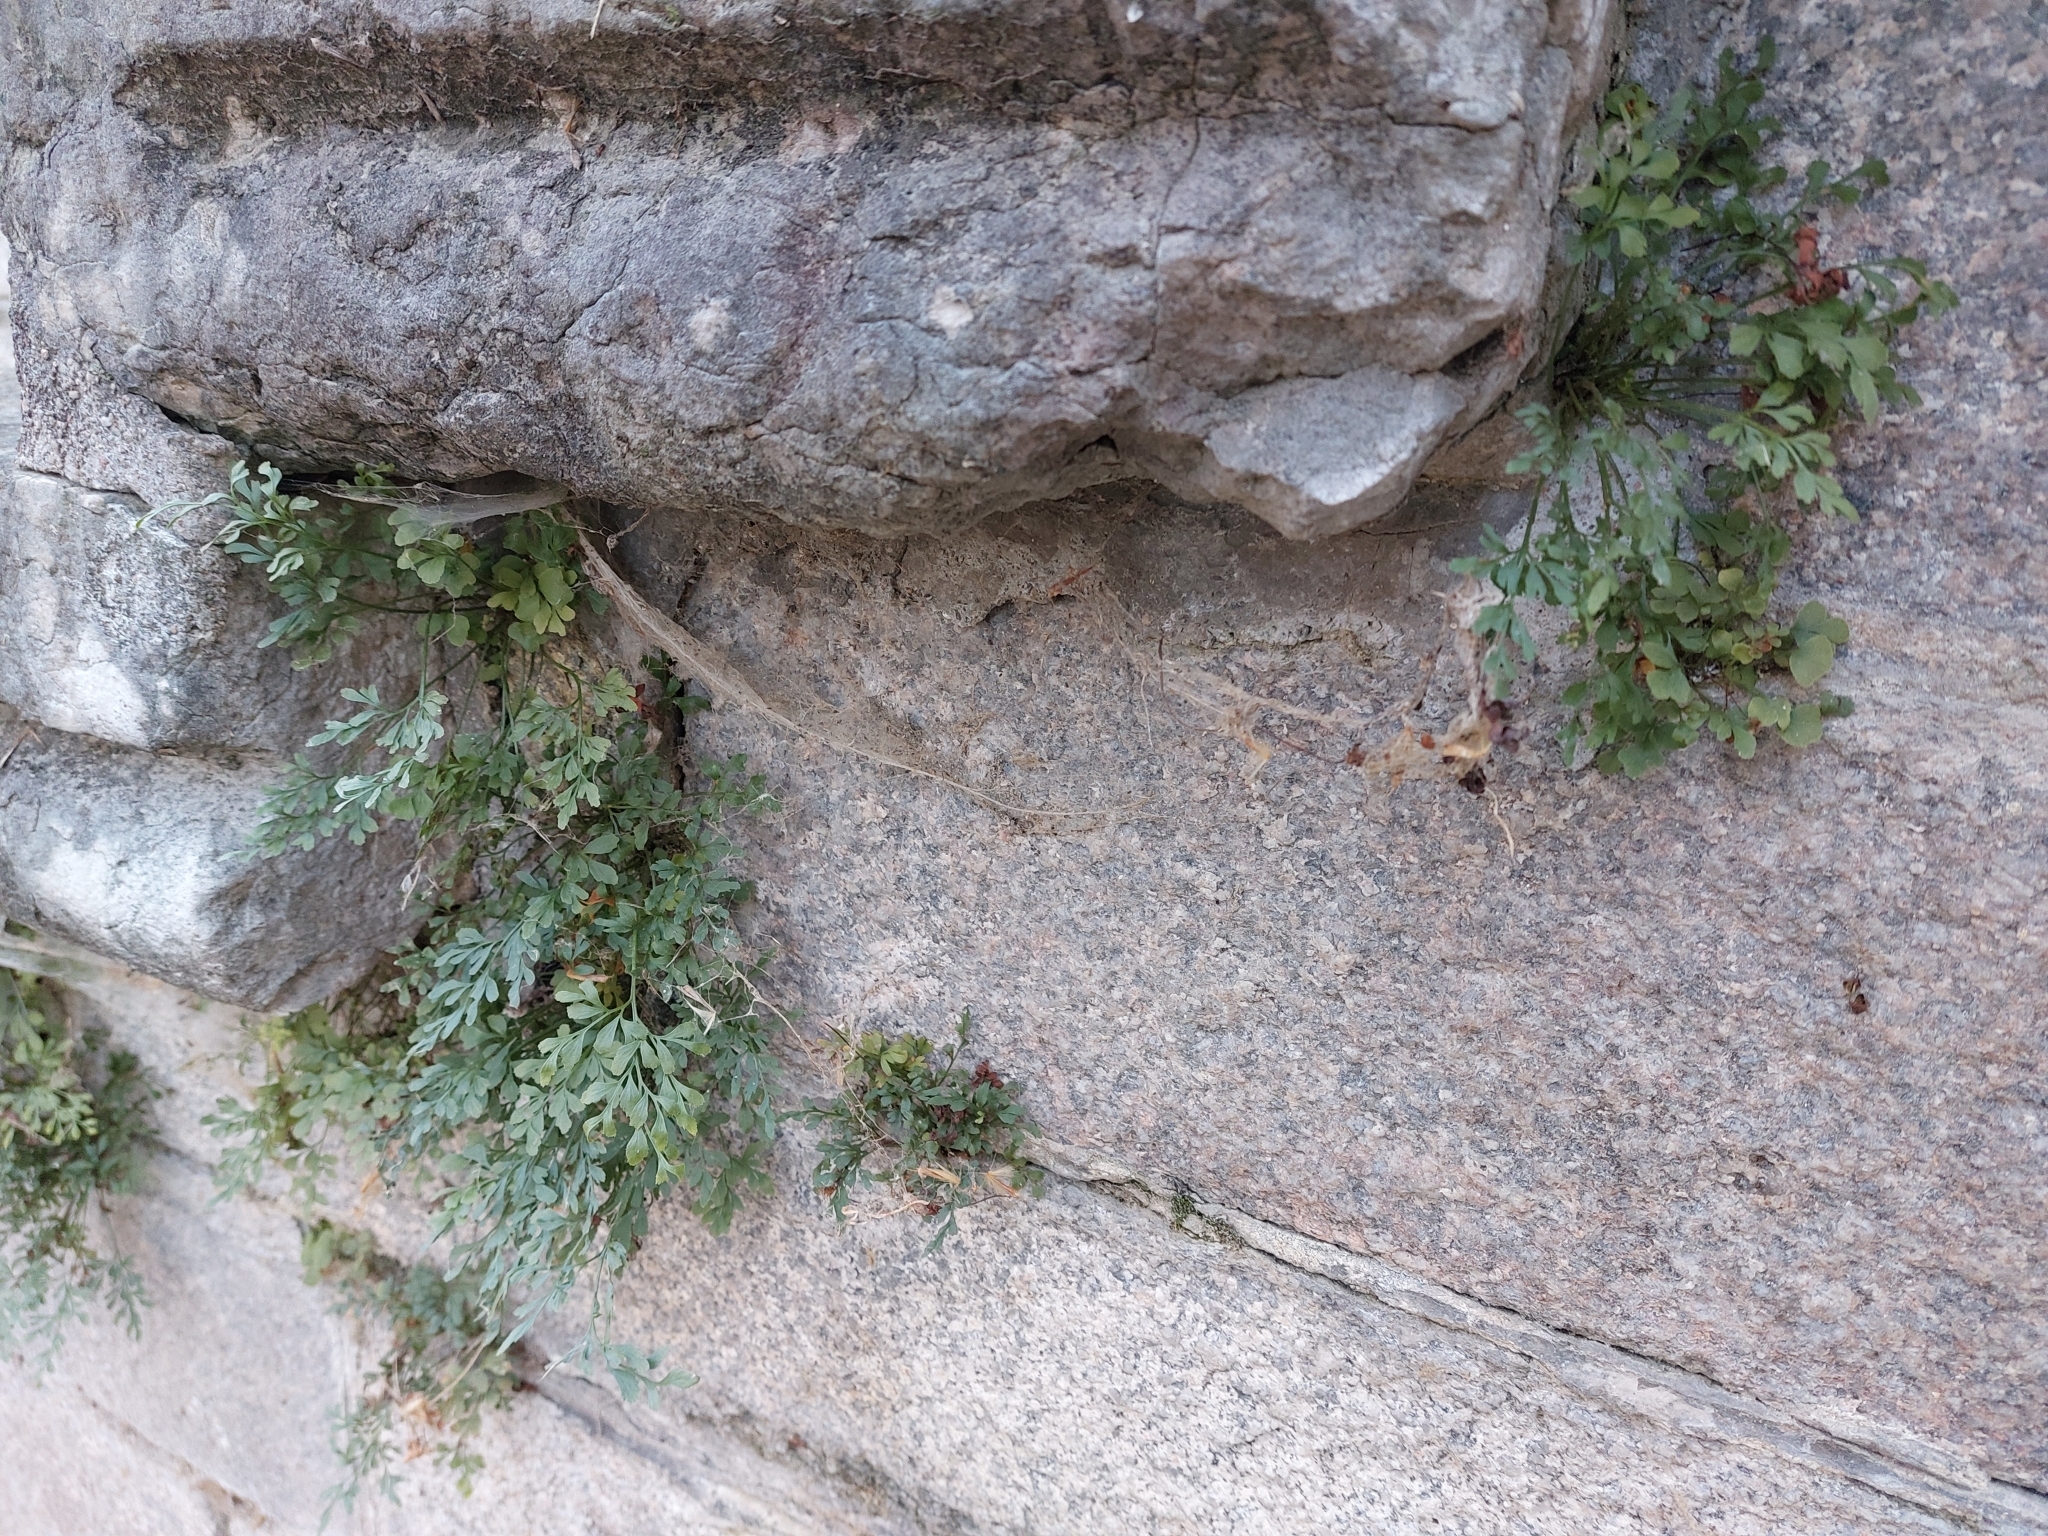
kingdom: Plantae
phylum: Tracheophyta
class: Polypodiopsida
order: Polypodiales
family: Aspleniaceae
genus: Asplenium
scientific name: Asplenium ruta-muraria
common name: Wall-rue
